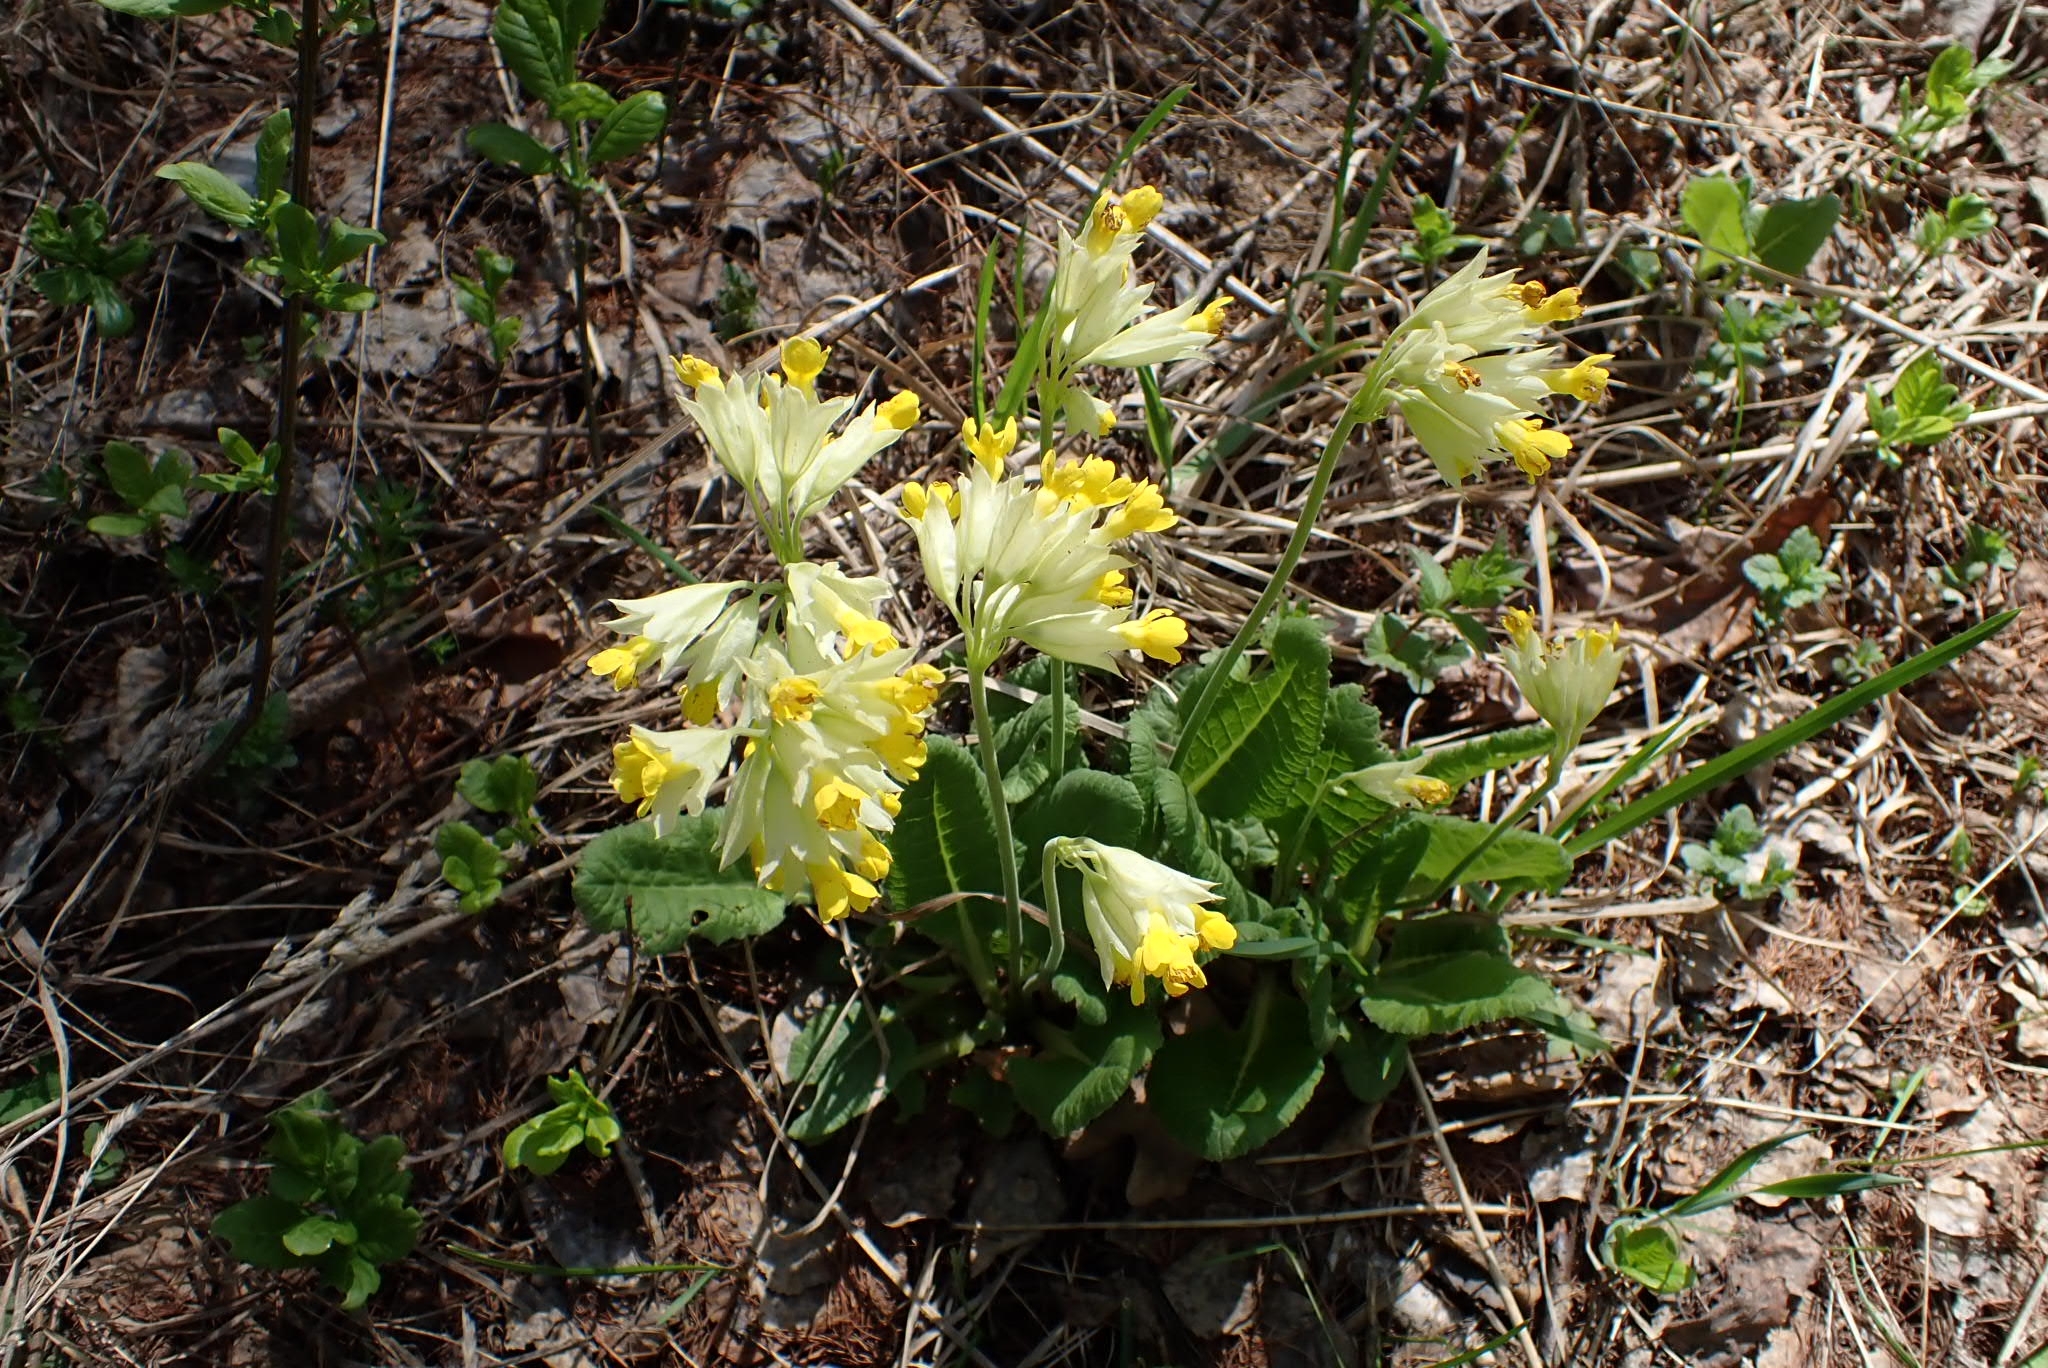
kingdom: Plantae
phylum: Tracheophyta
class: Magnoliopsida
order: Ericales
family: Primulaceae
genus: Primula
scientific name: Primula veris
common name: Cowslip
